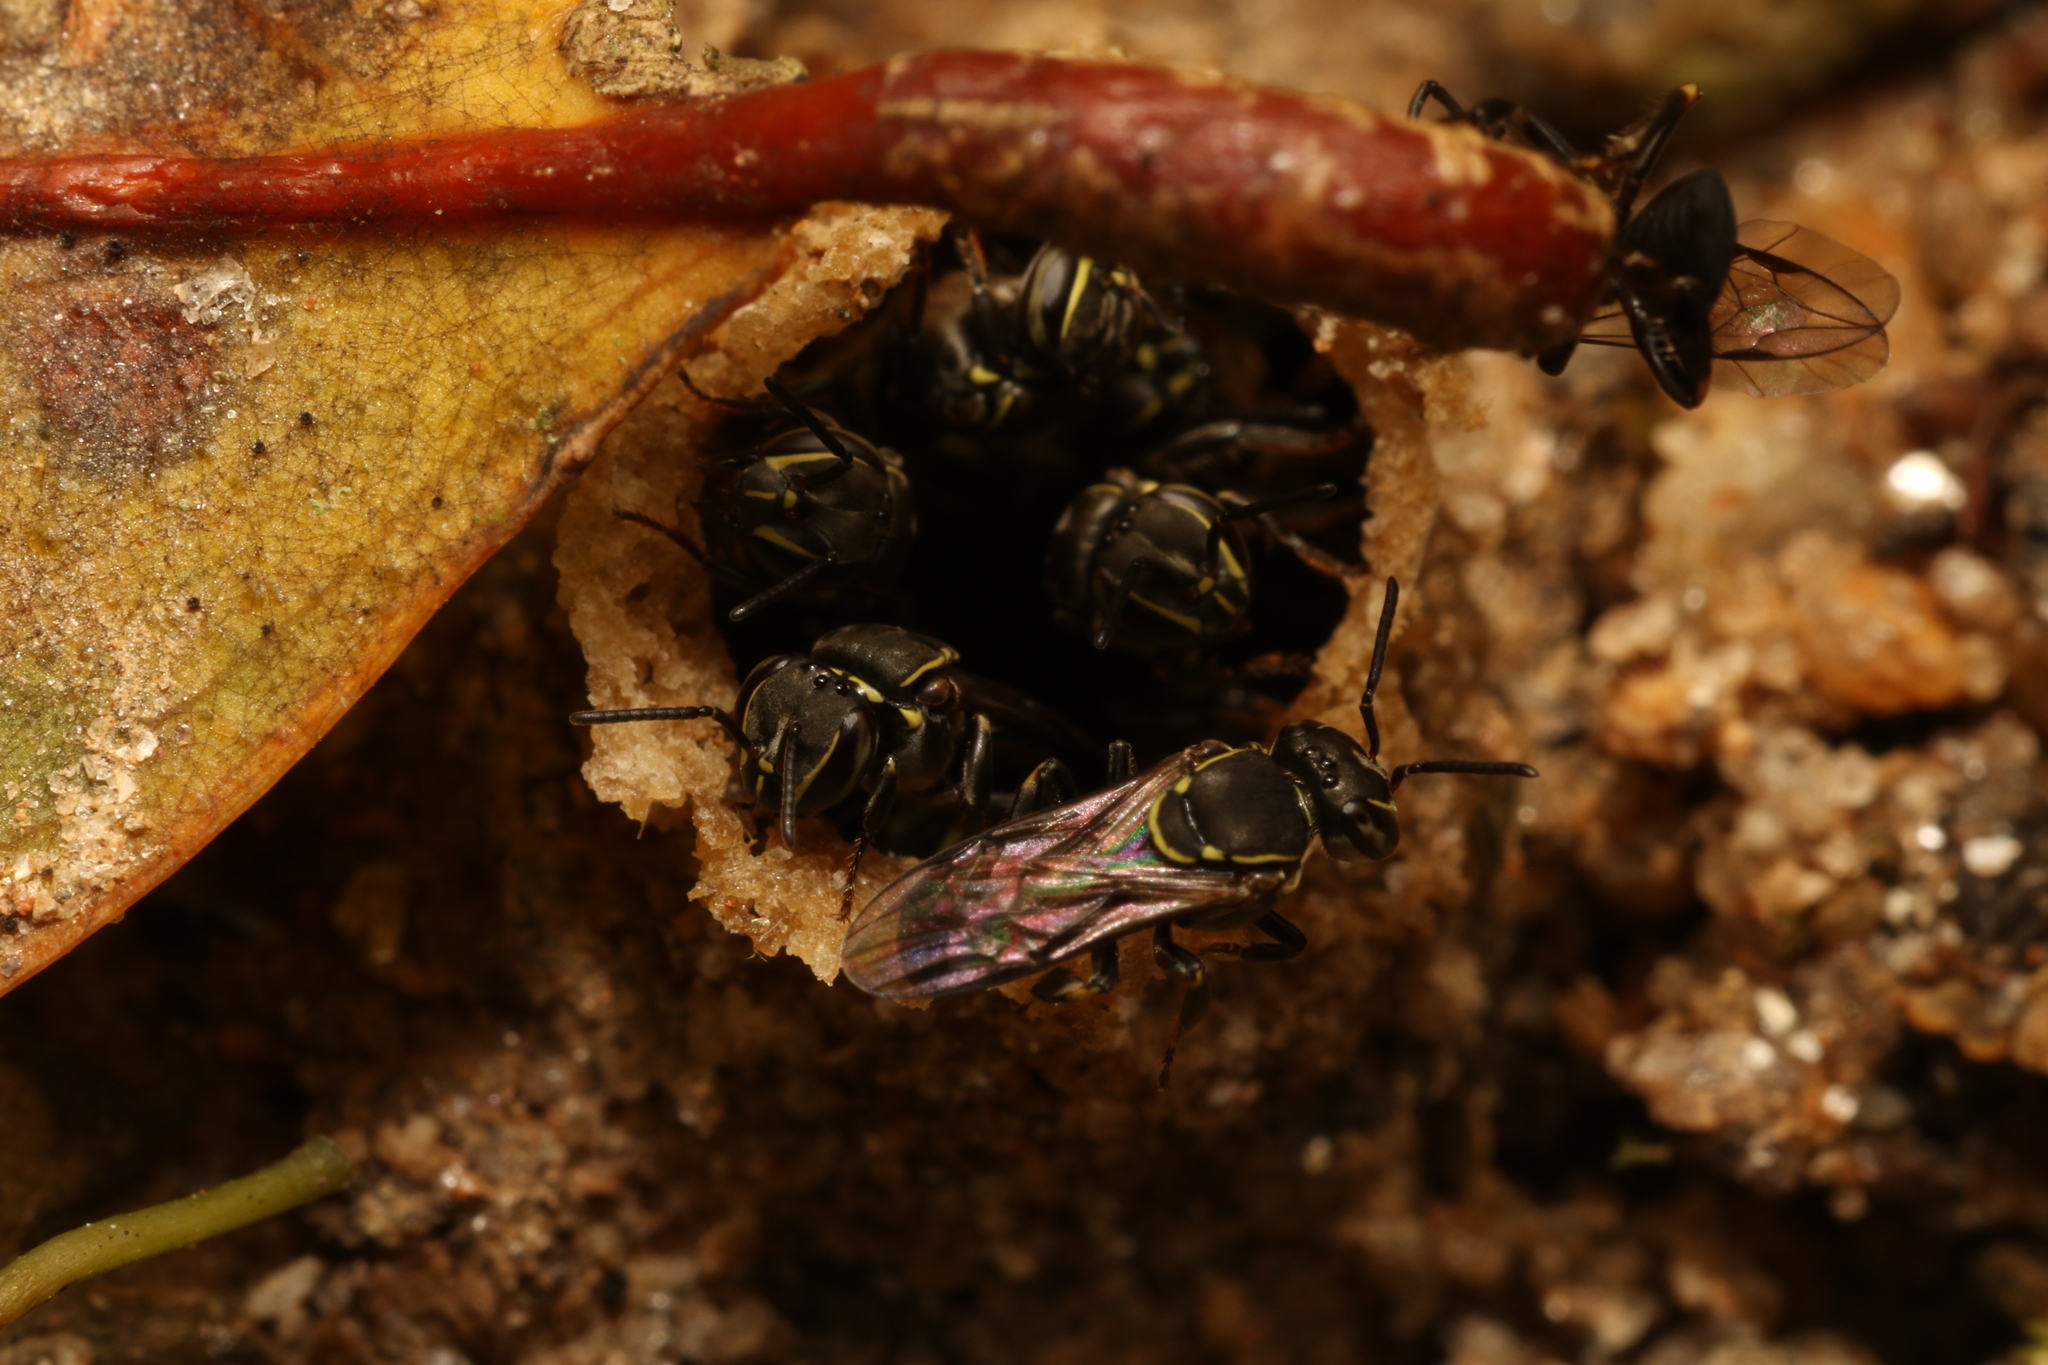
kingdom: Animalia
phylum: Arthropoda
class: Insecta
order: Hymenoptera
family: Apidae
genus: Paratrigona
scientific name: Paratrigona subnuda
